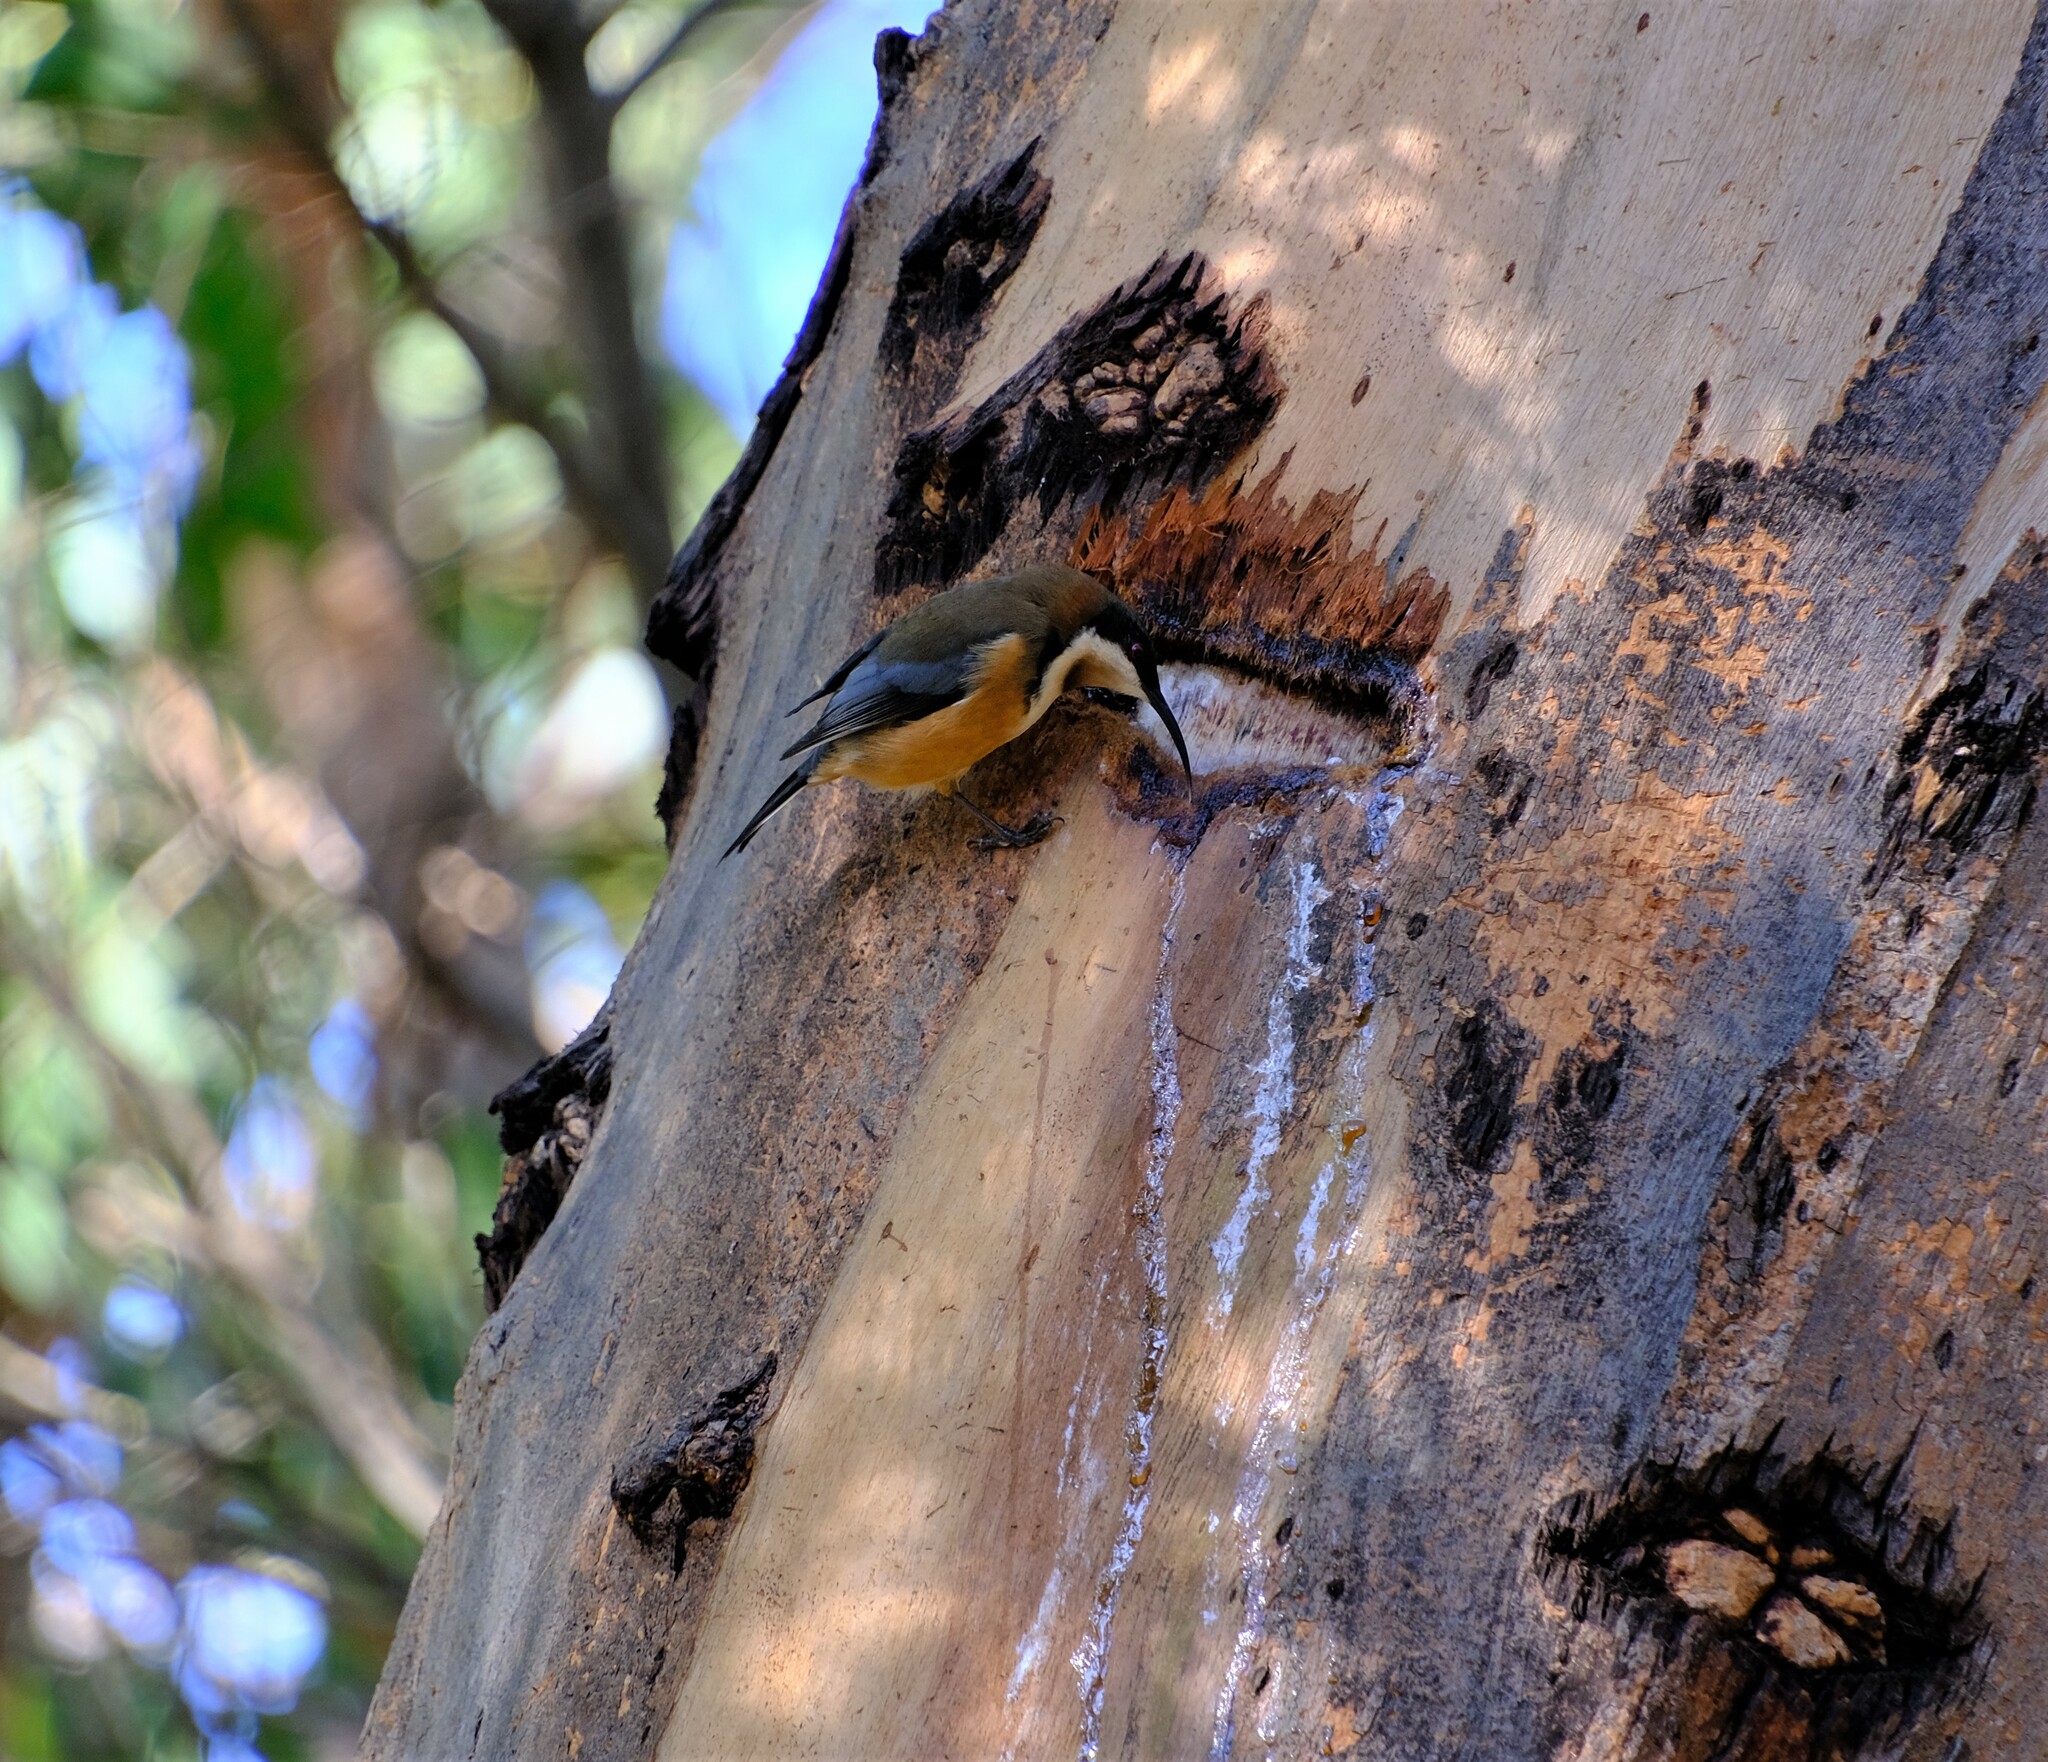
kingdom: Animalia
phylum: Chordata
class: Mammalia
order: Diprotodontia
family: Petauridae
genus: Petaurus
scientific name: Petaurus australis
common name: Yellow-bellied glider
